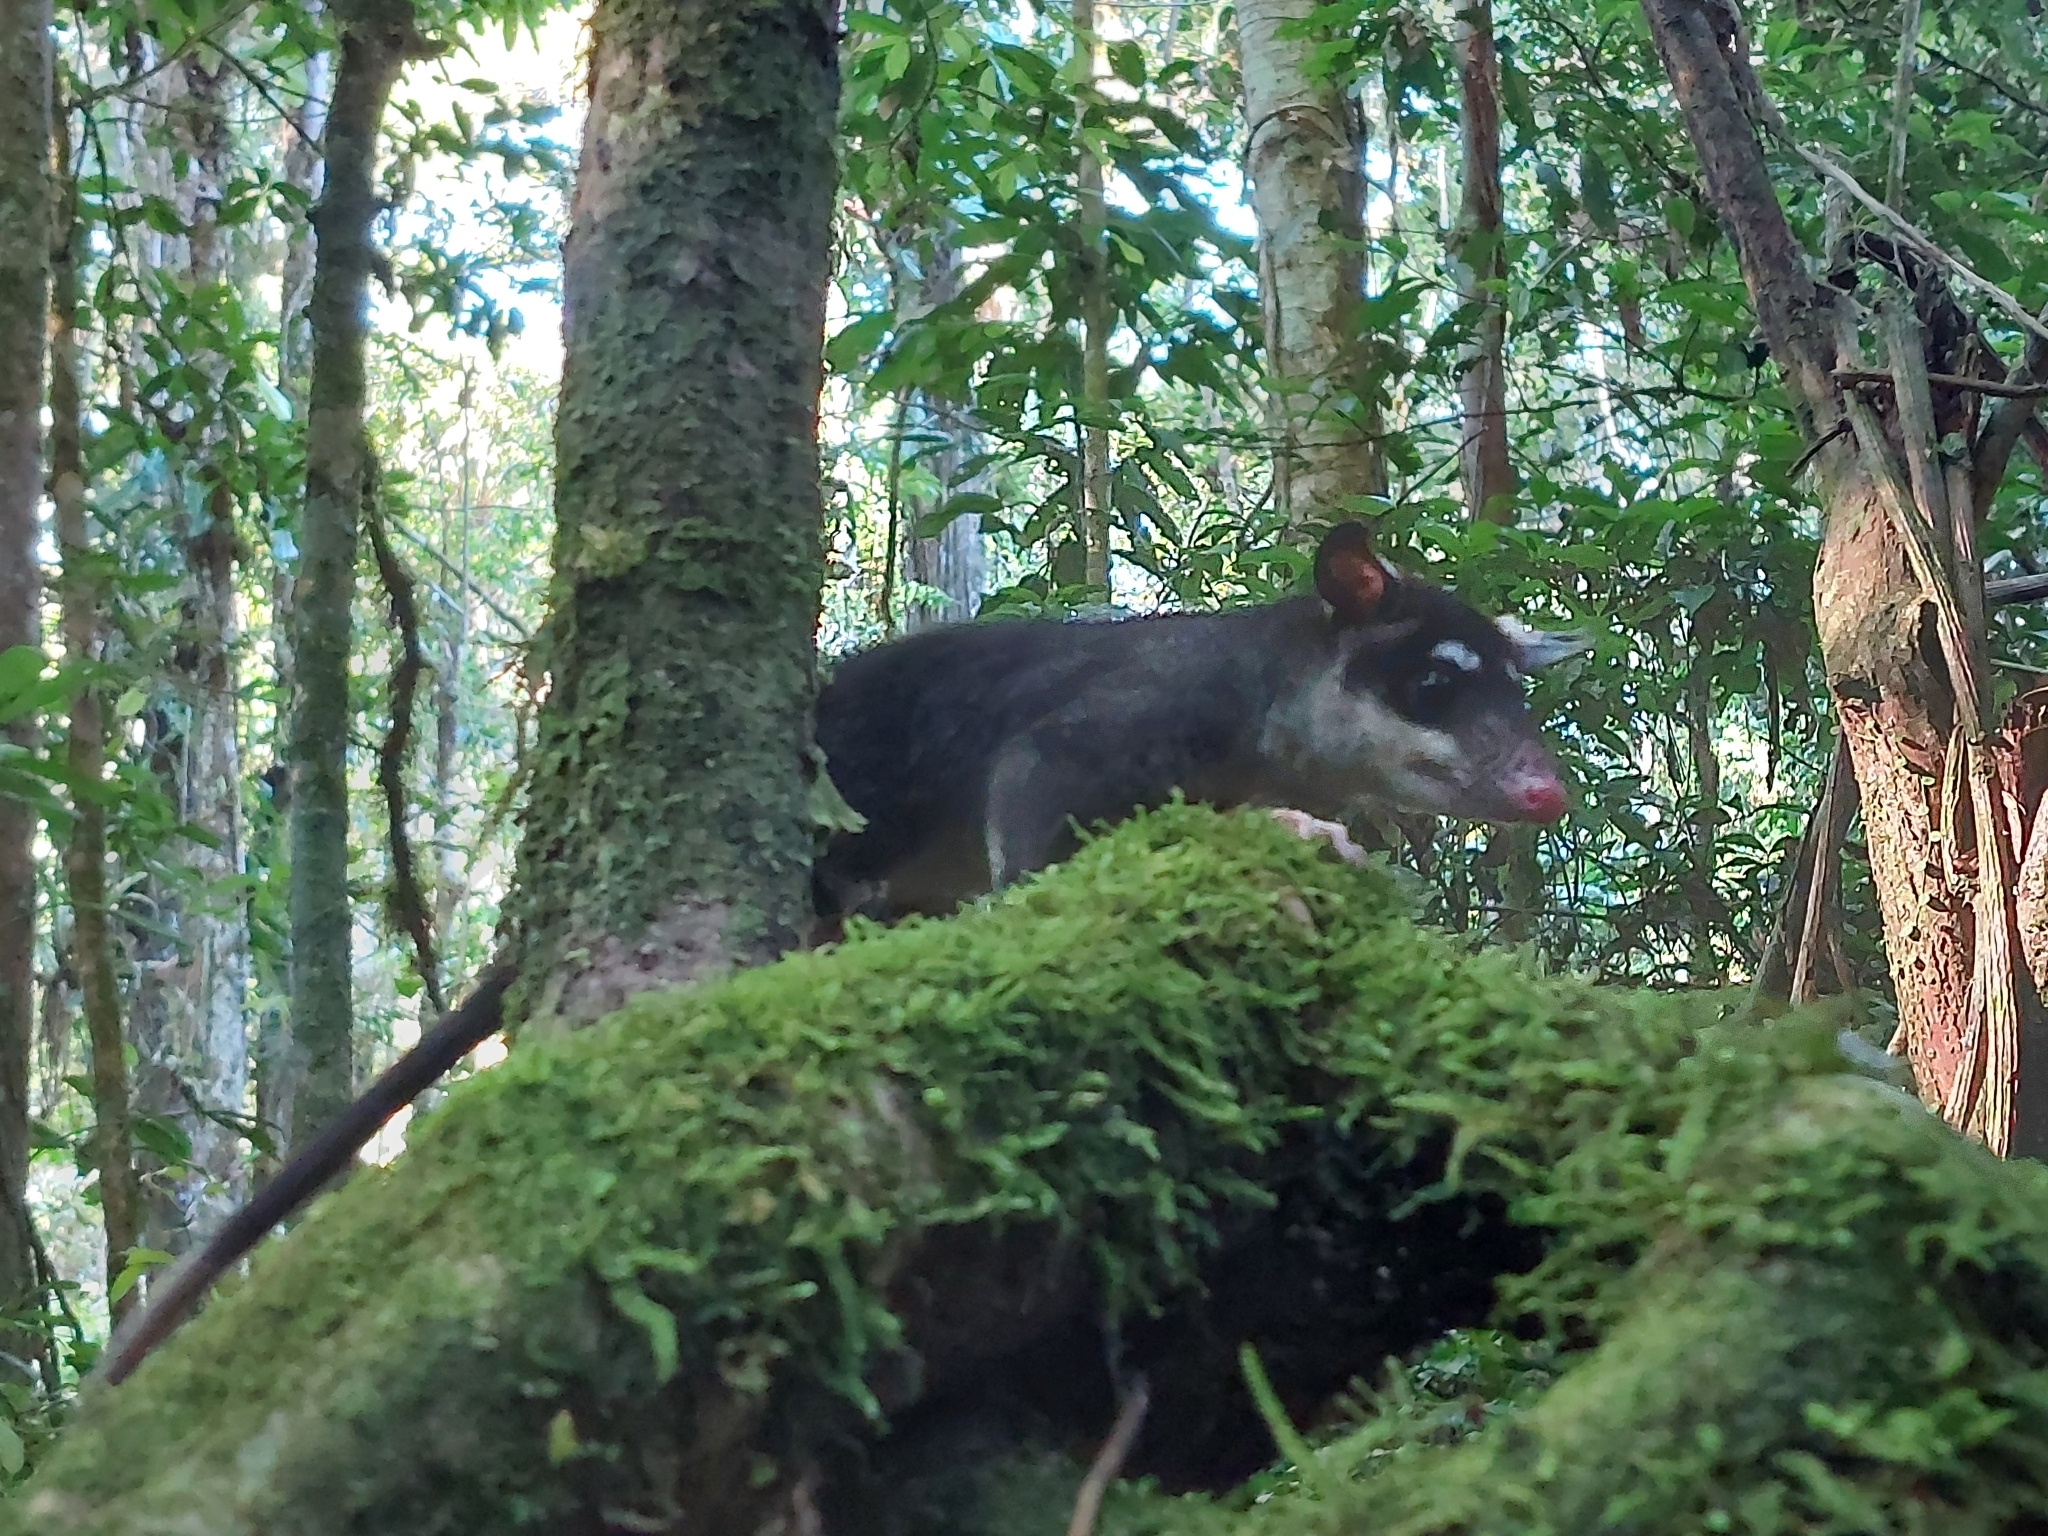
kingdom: Animalia
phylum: Chordata
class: Mammalia
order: Didelphimorphia
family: Didelphidae
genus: Philander
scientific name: Philander andersoni
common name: Anderson's four-eyed opossum
